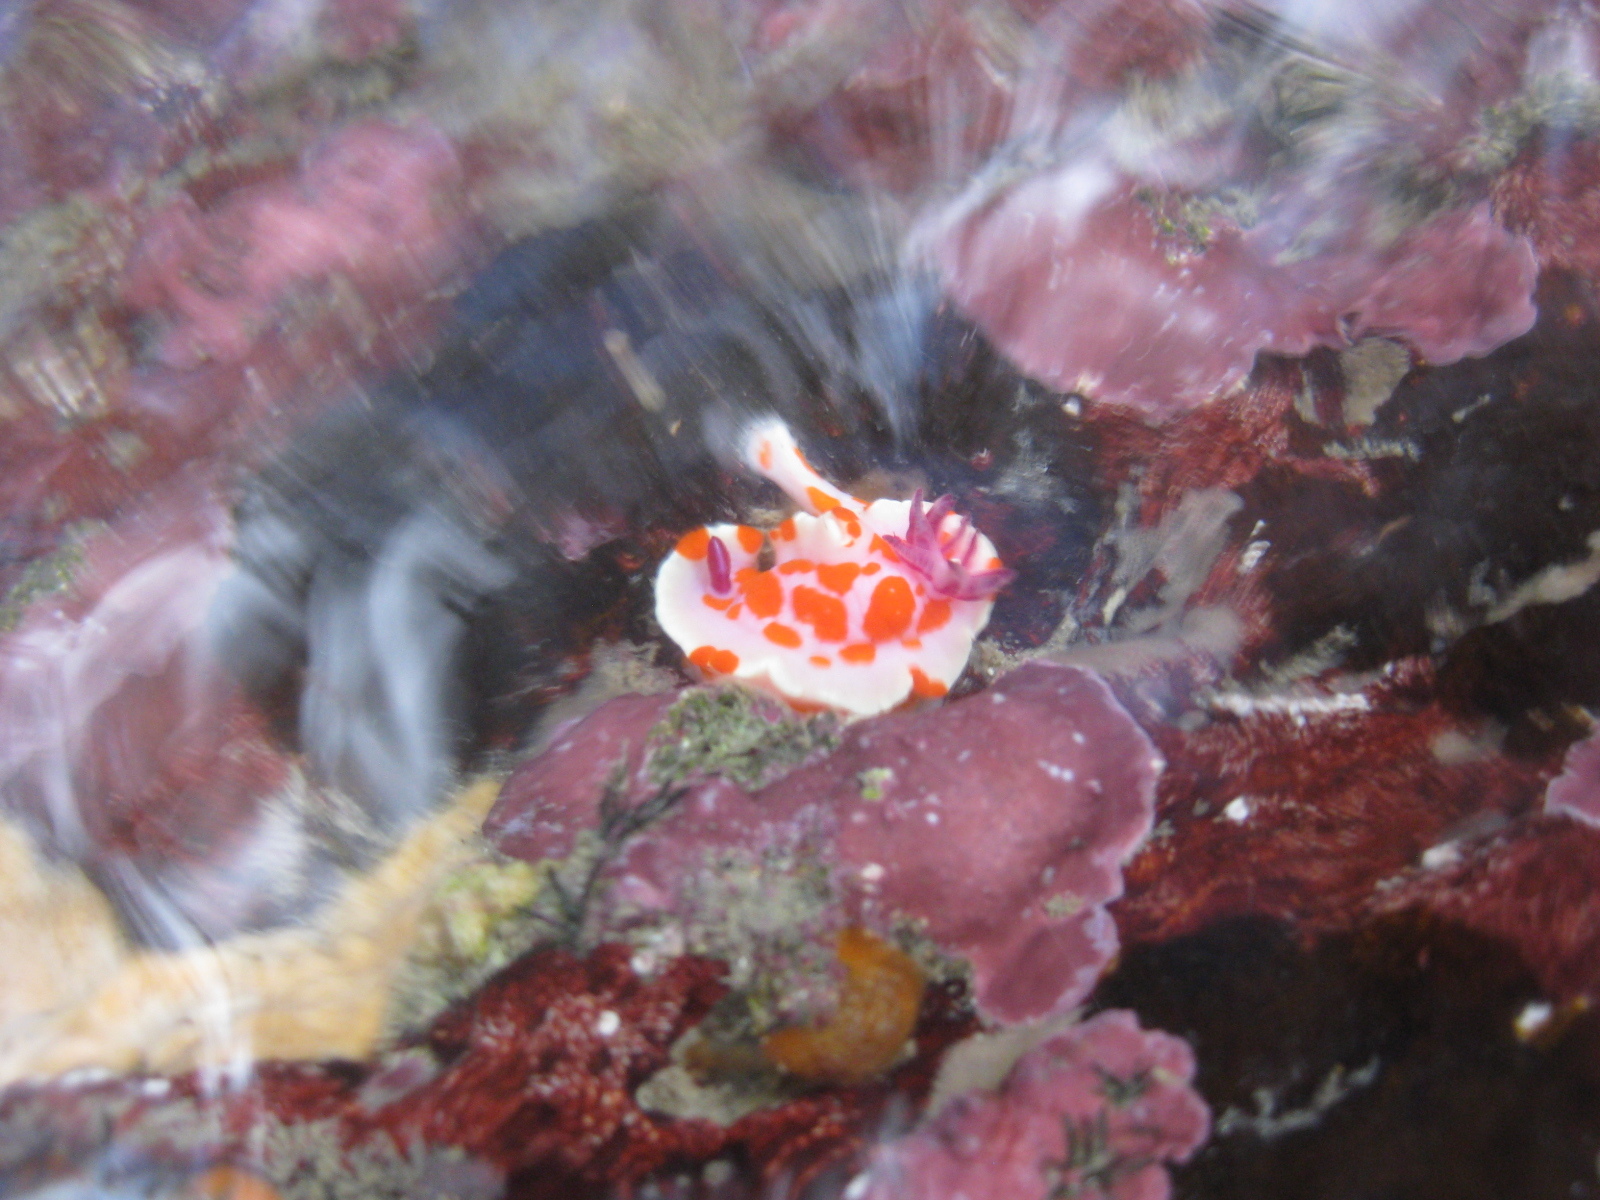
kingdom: Animalia
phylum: Mollusca
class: Gastropoda
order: Nudibranchia
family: Chromodorididae
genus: Ceratosoma
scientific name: Ceratosoma amoenum
